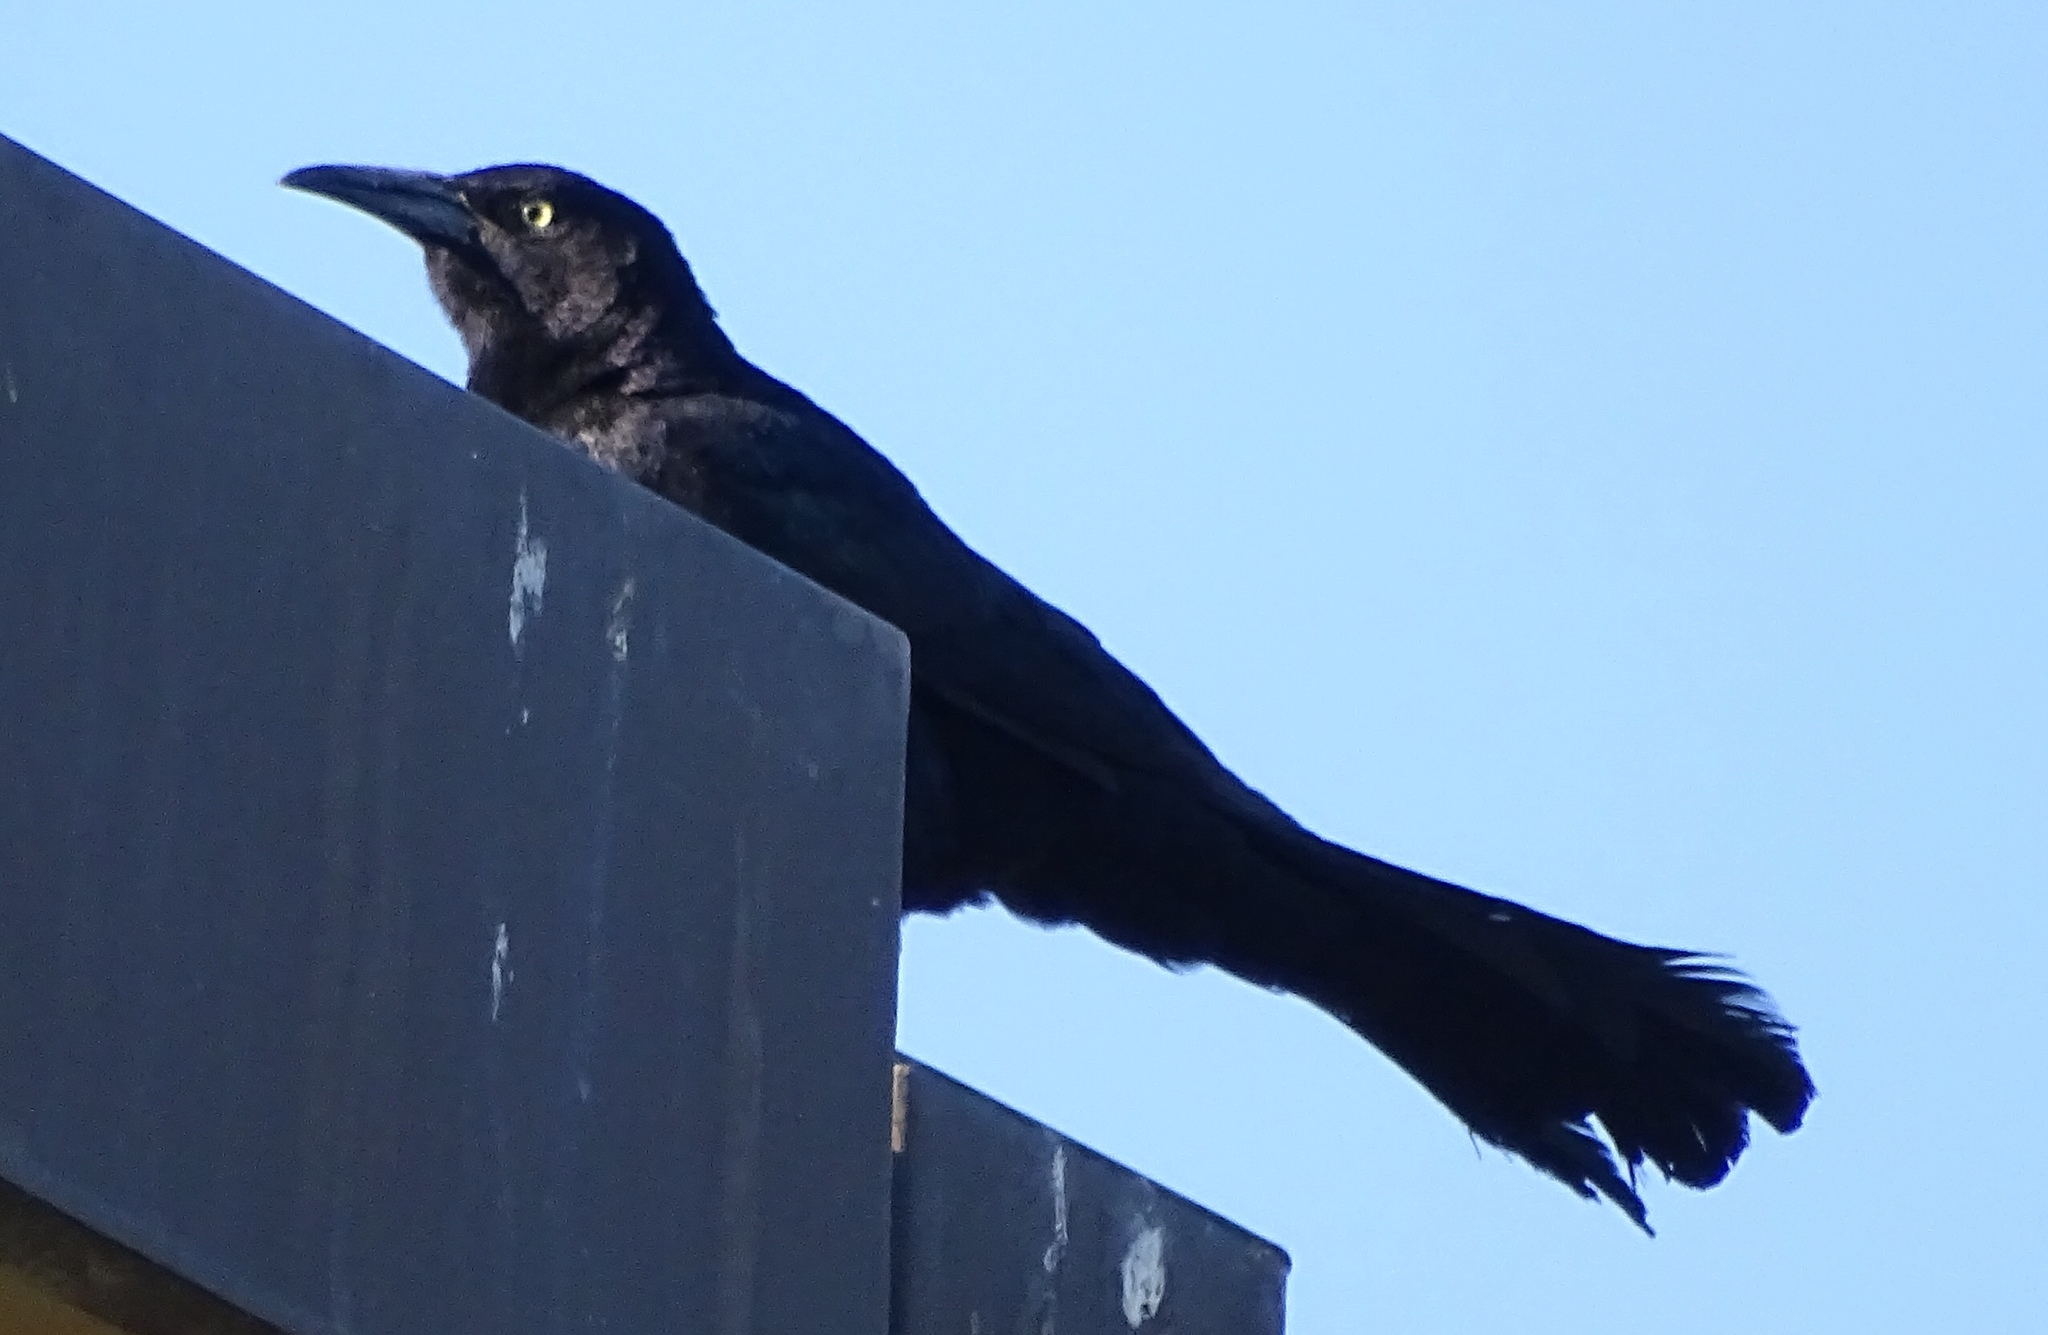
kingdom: Animalia
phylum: Chordata
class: Aves
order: Passeriformes
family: Icteridae
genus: Quiscalus
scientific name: Quiscalus mexicanus
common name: Great-tailed grackle
